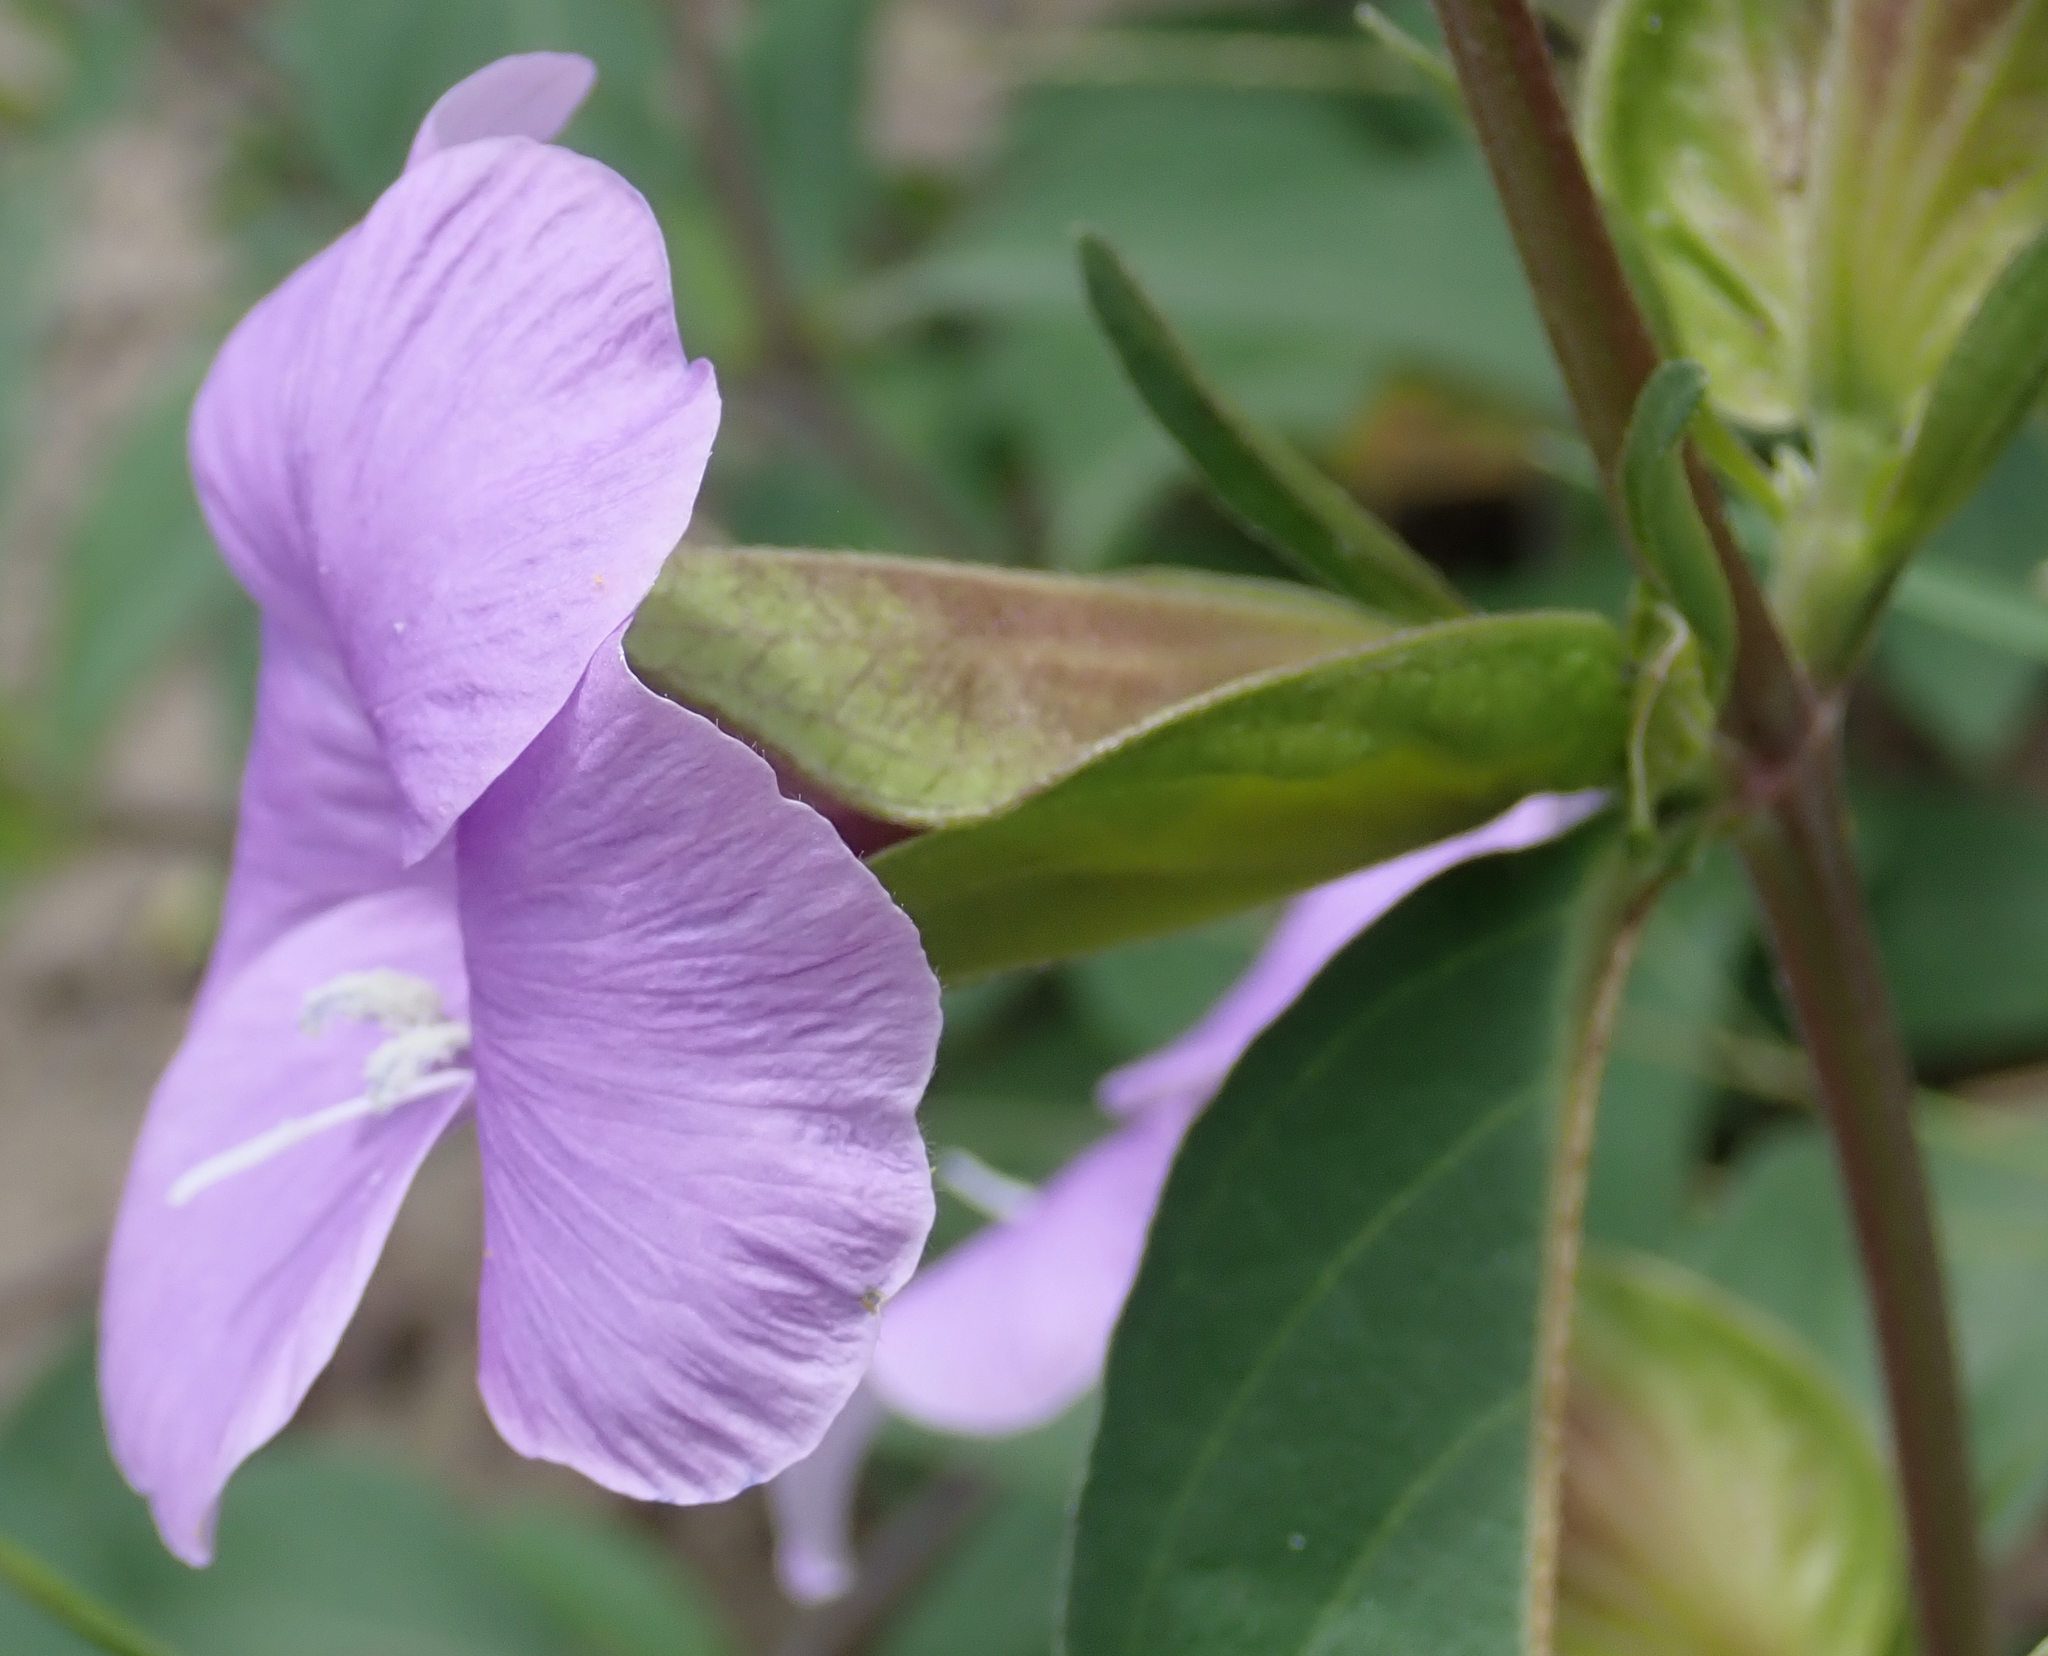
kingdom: Plantae
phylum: Tracheophyta
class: Magnoliopsida
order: Lamiales
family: Acanthaceae
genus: Barleria
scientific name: Barleria mackenii
